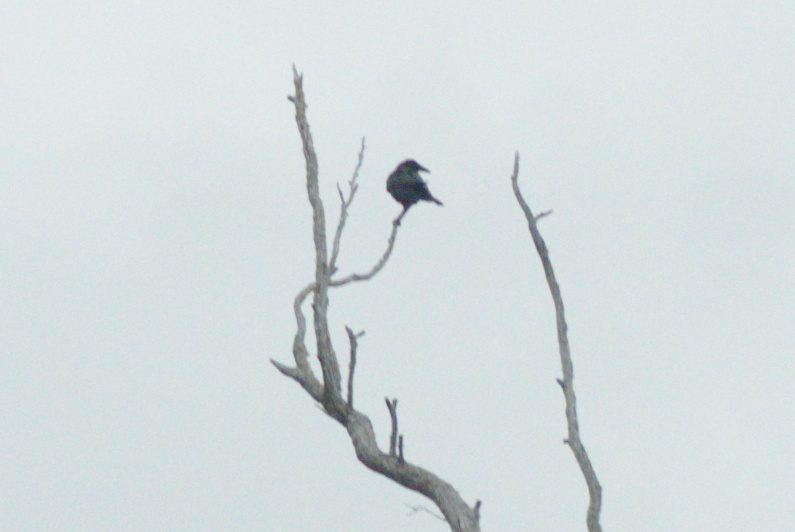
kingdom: Animalia
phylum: Chordata
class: Aves
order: Passeriformes
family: Corvidae
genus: Corvus
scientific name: Corvus tasmanicus
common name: Forest raven
